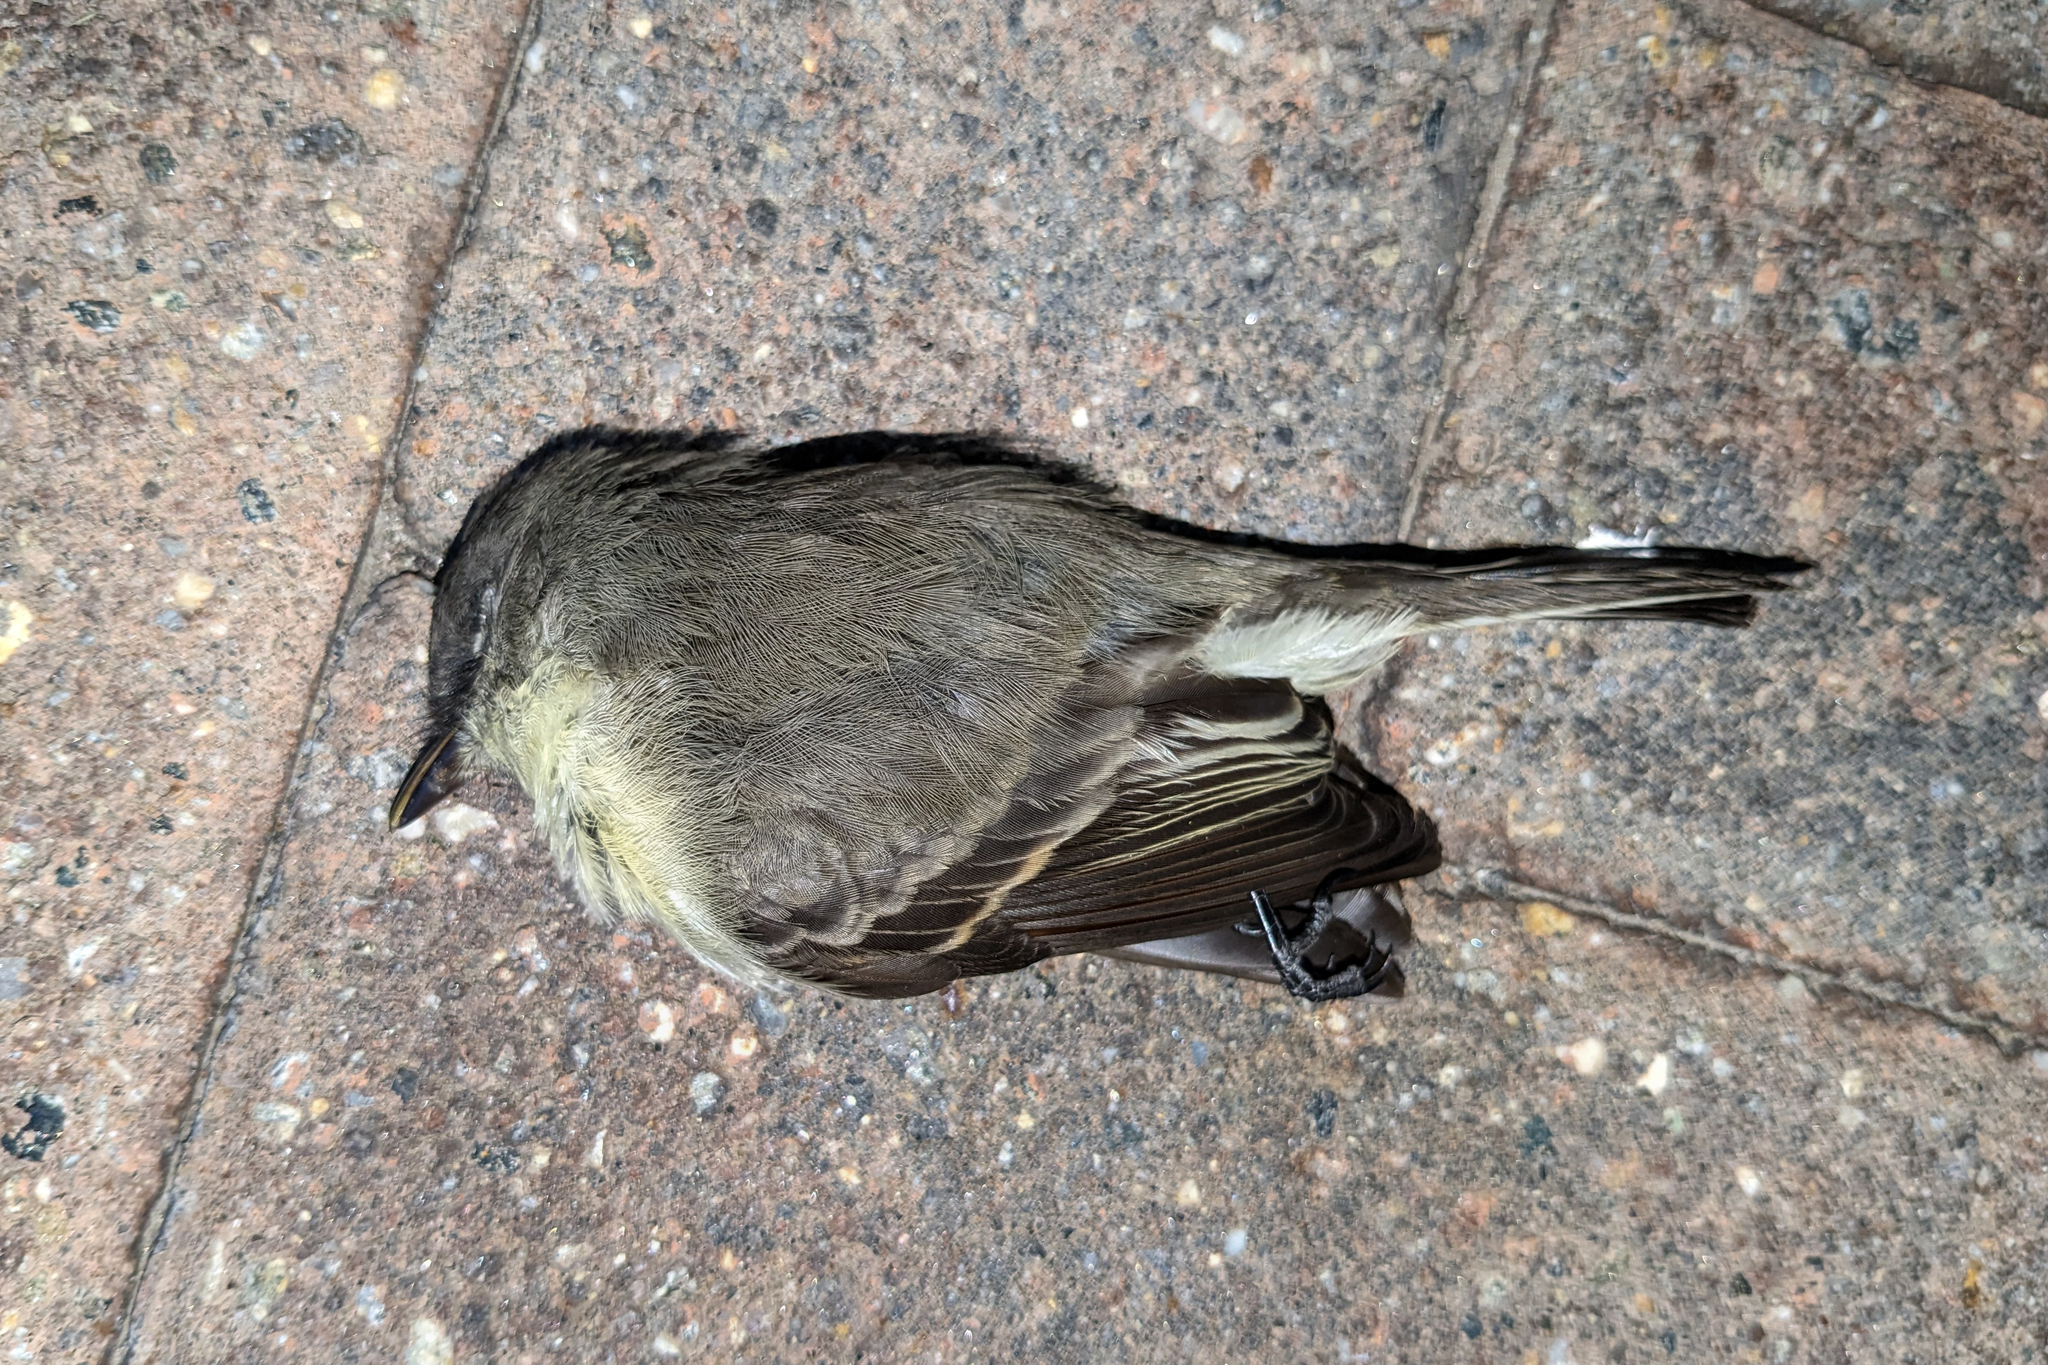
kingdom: Animalia
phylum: Chordata
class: Aves
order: Passeriformes
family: Tyrannidae
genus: Sayornis
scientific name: Sayornis phoebe
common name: Eastern phoebe
